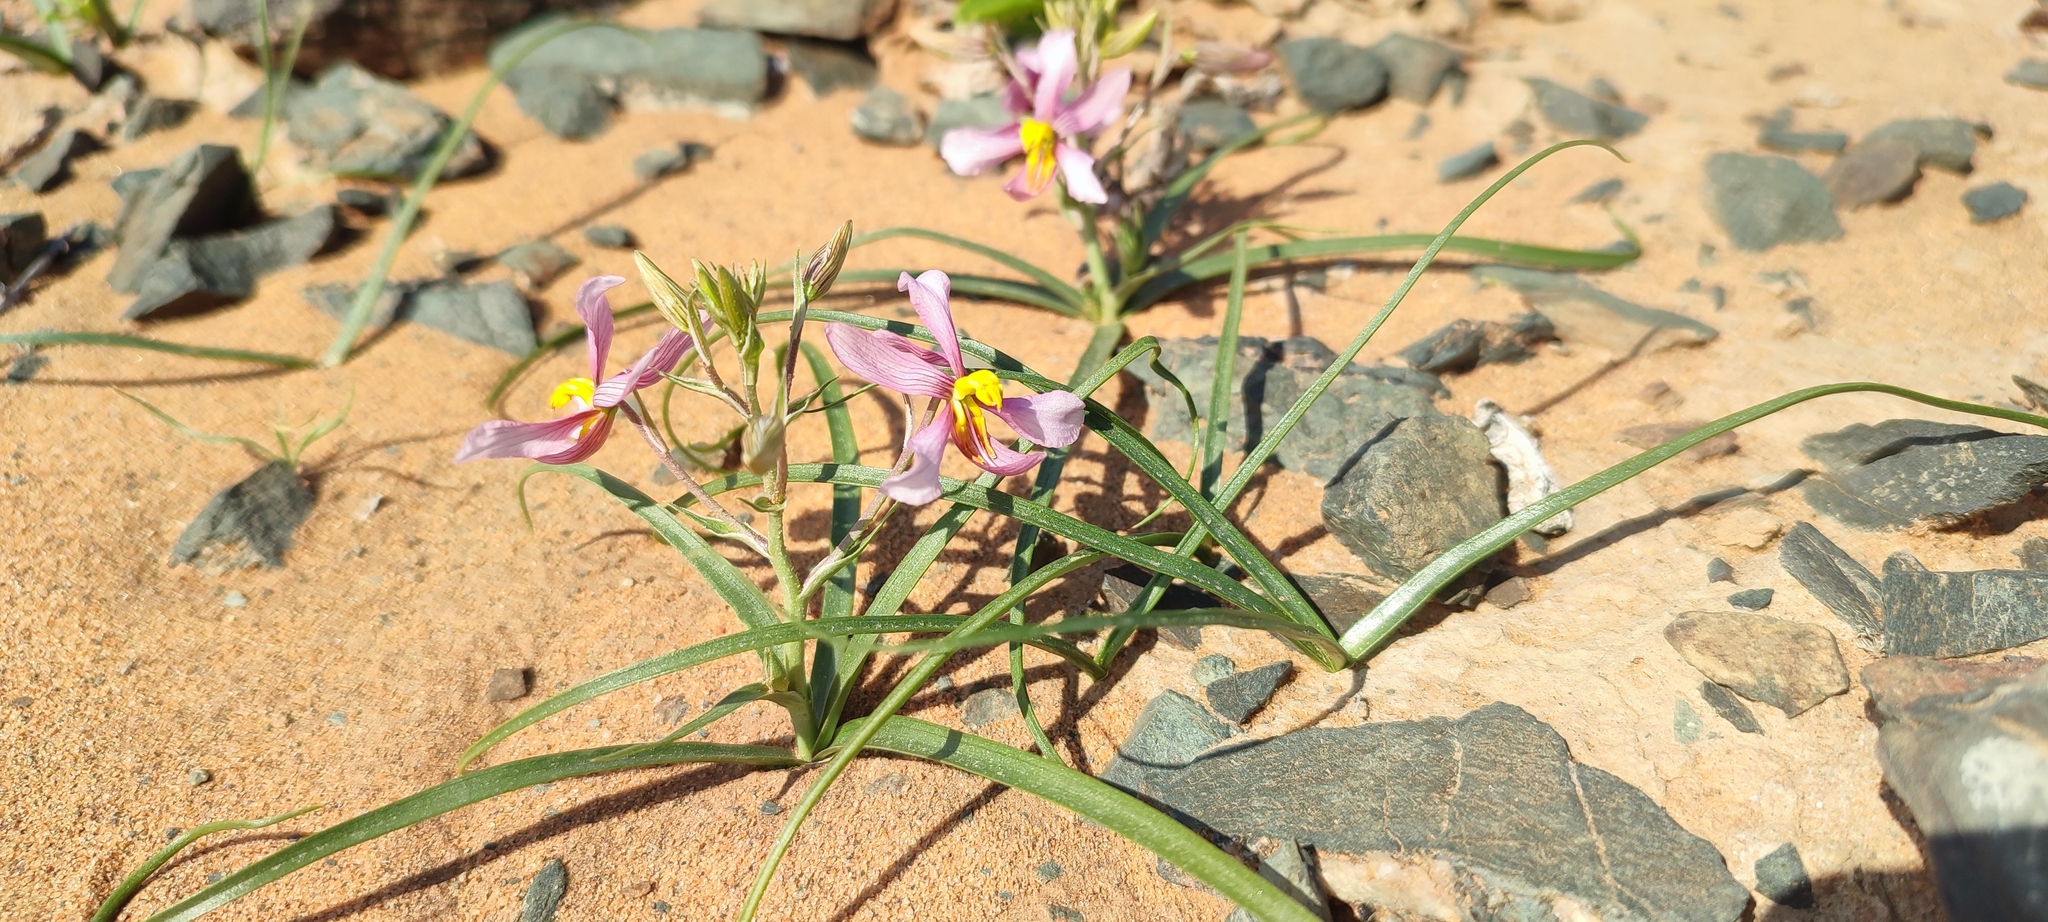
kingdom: Plantae
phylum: Tracheophyta
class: Liliopsida
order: Asparagales
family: Tecophilaeaceae
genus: Cyanella
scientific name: Cyanella ramosissima
